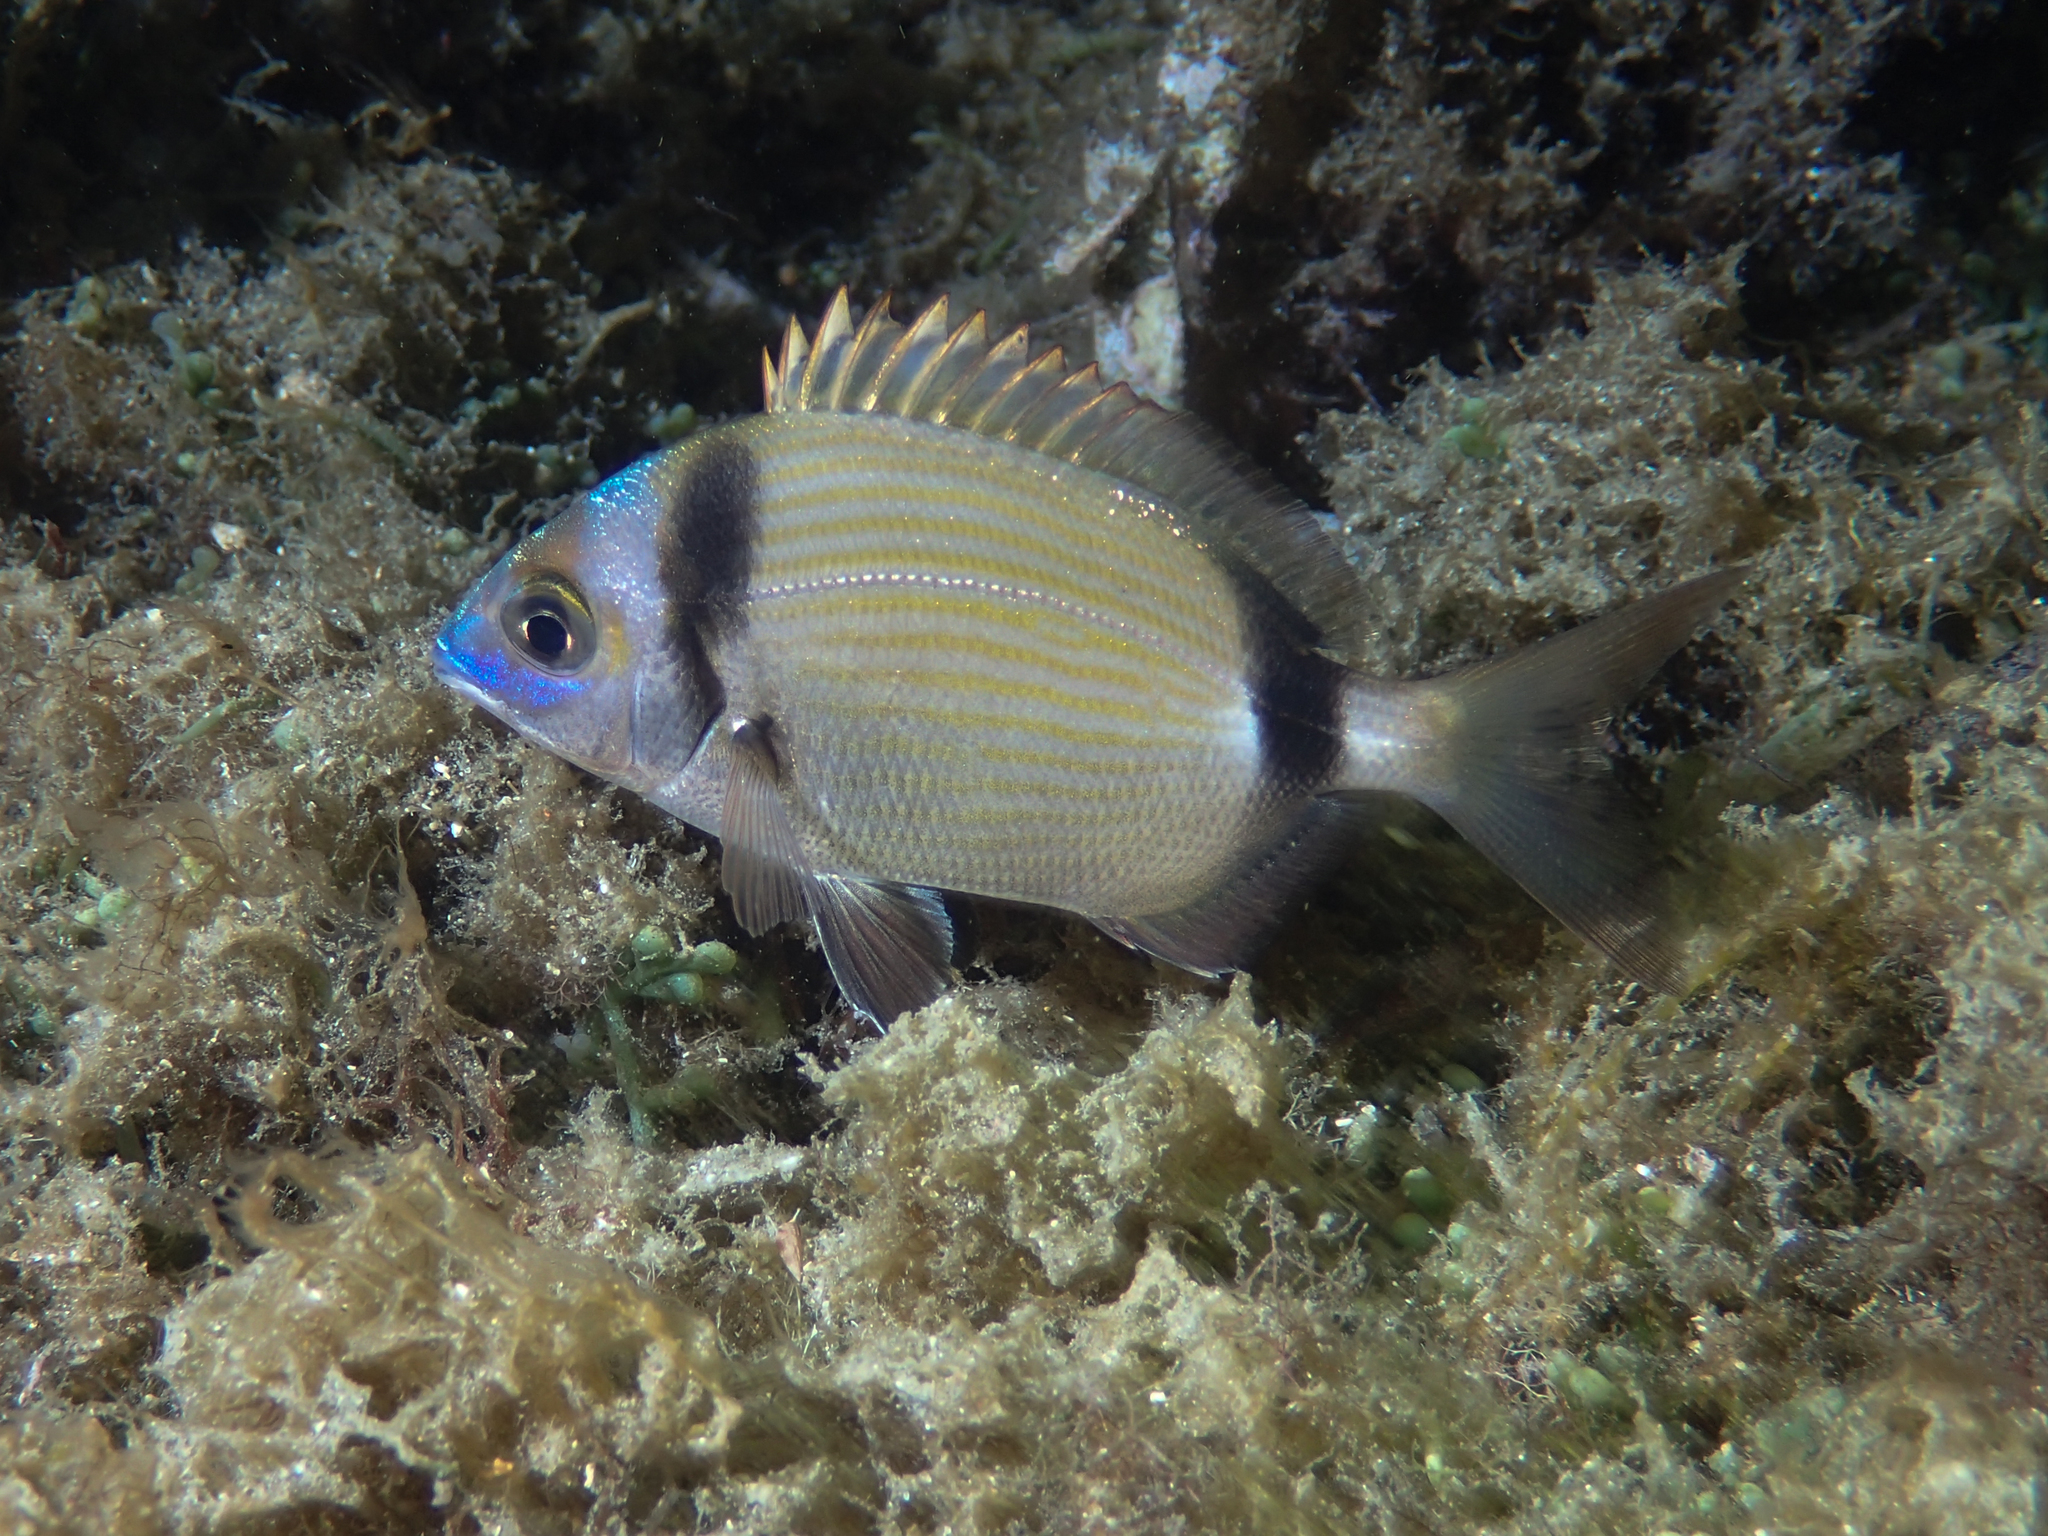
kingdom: Animalia
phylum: Chordata
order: Perciformes
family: Sparidae
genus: Diplodus
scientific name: Diplodus vulgaris
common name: Common two-banded seabream
